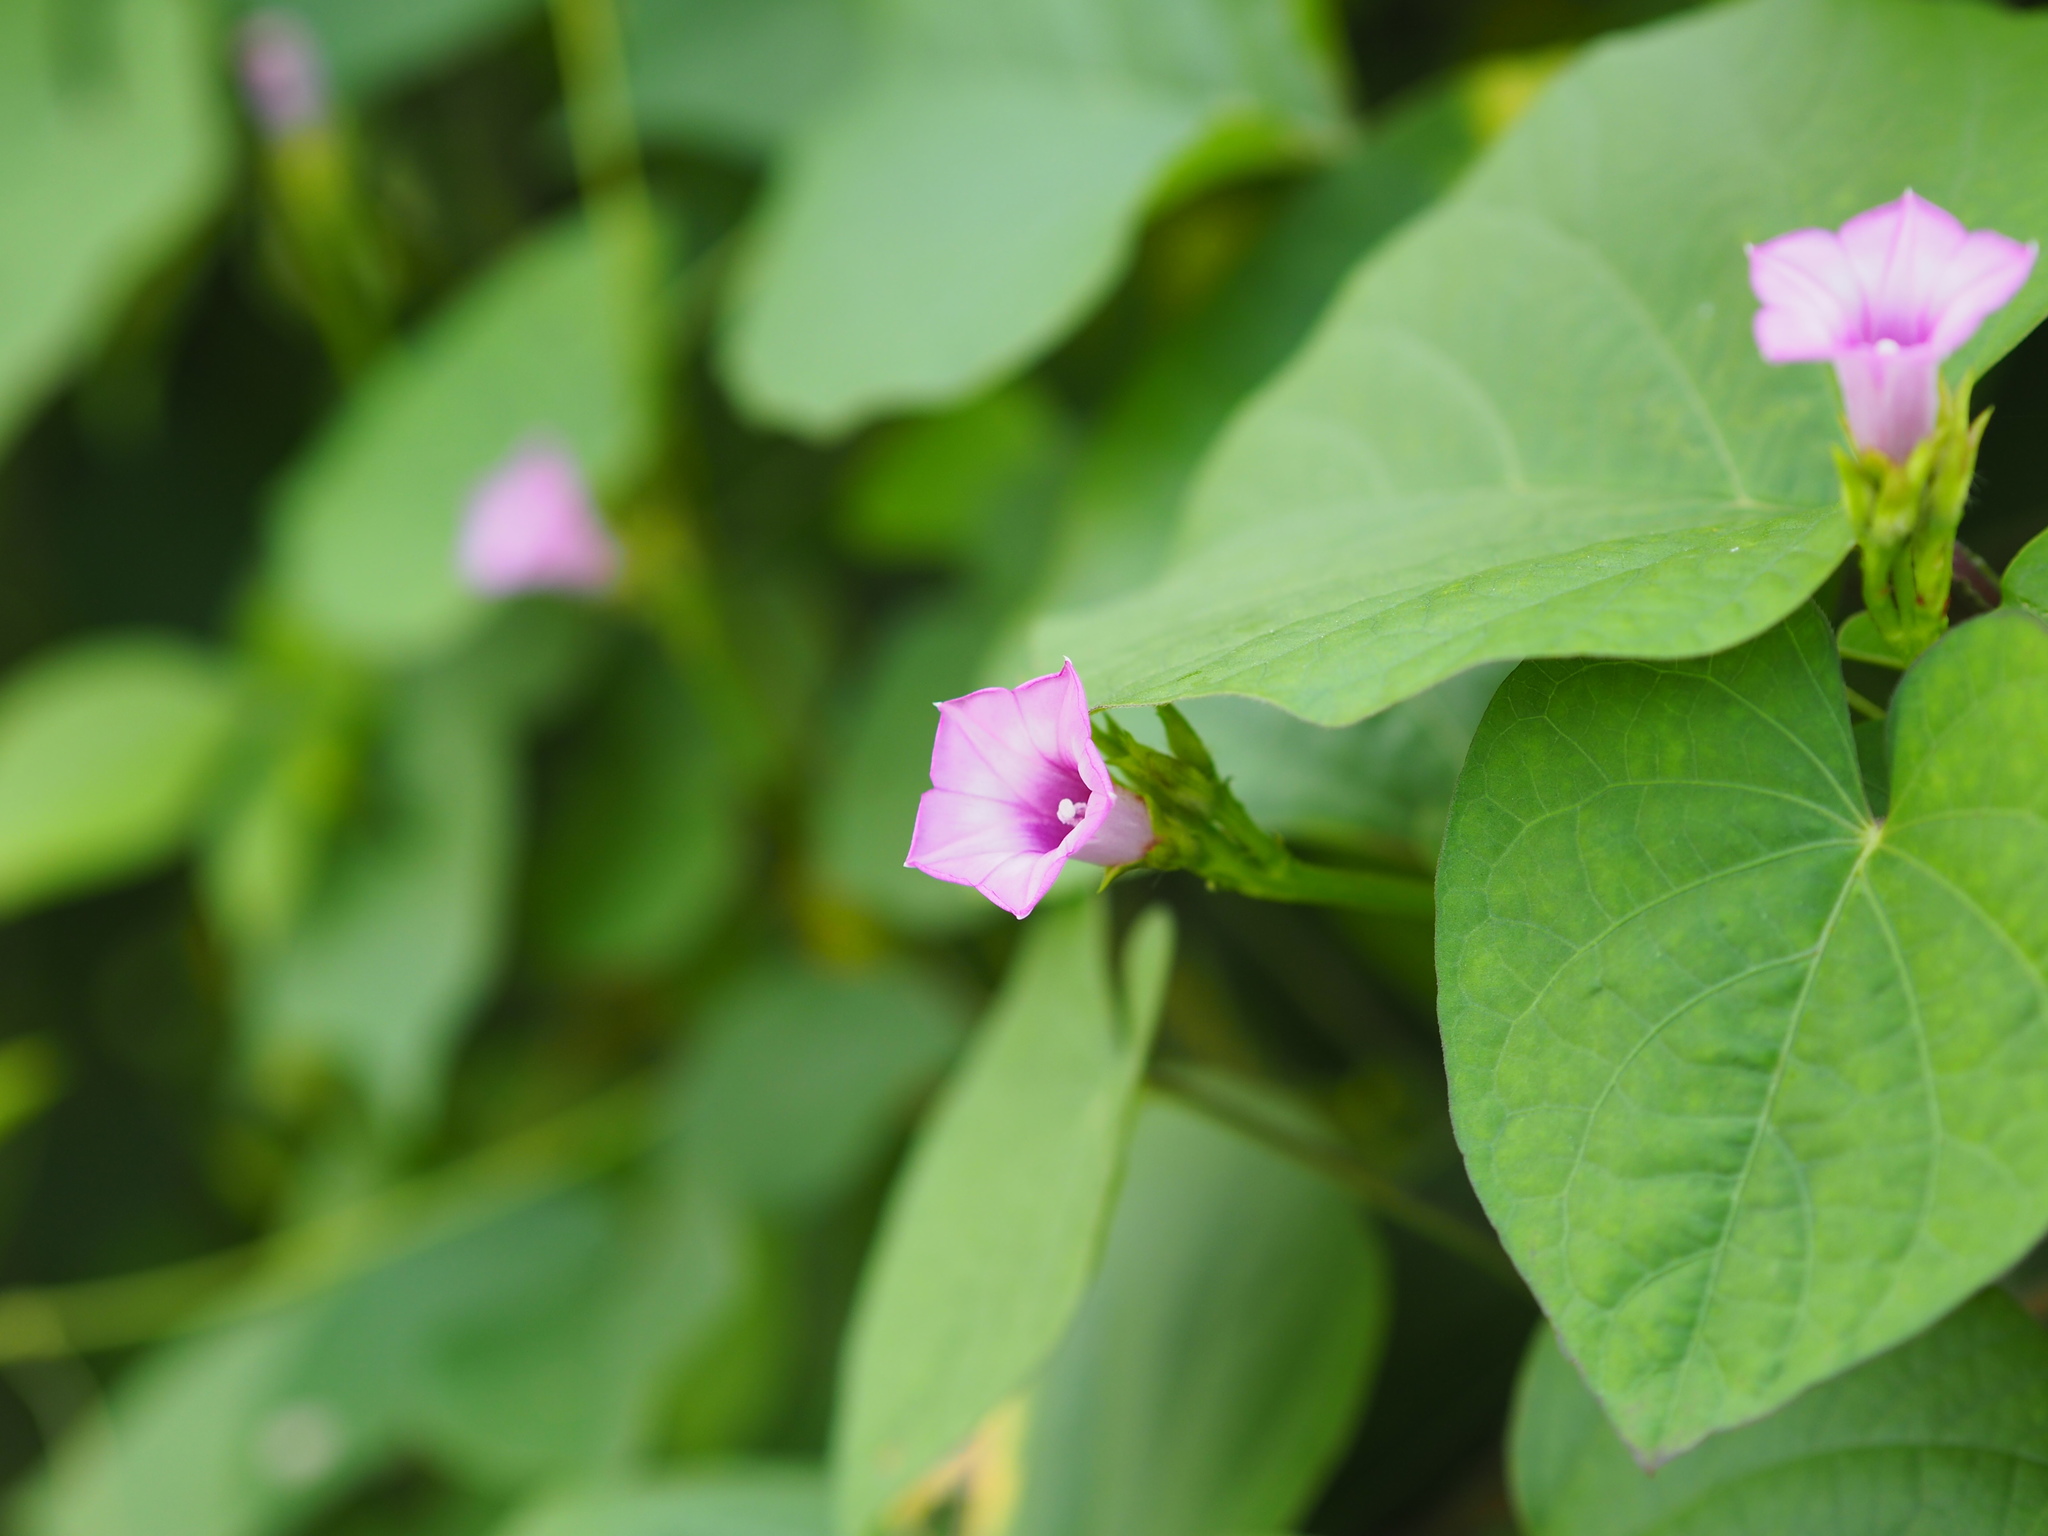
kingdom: Plantae
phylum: Tracheophyta
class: Magnoliopsida
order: Solanales
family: Convolvulaceae
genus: Ipomoea
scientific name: Ipomoea triloba
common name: Little-bell
